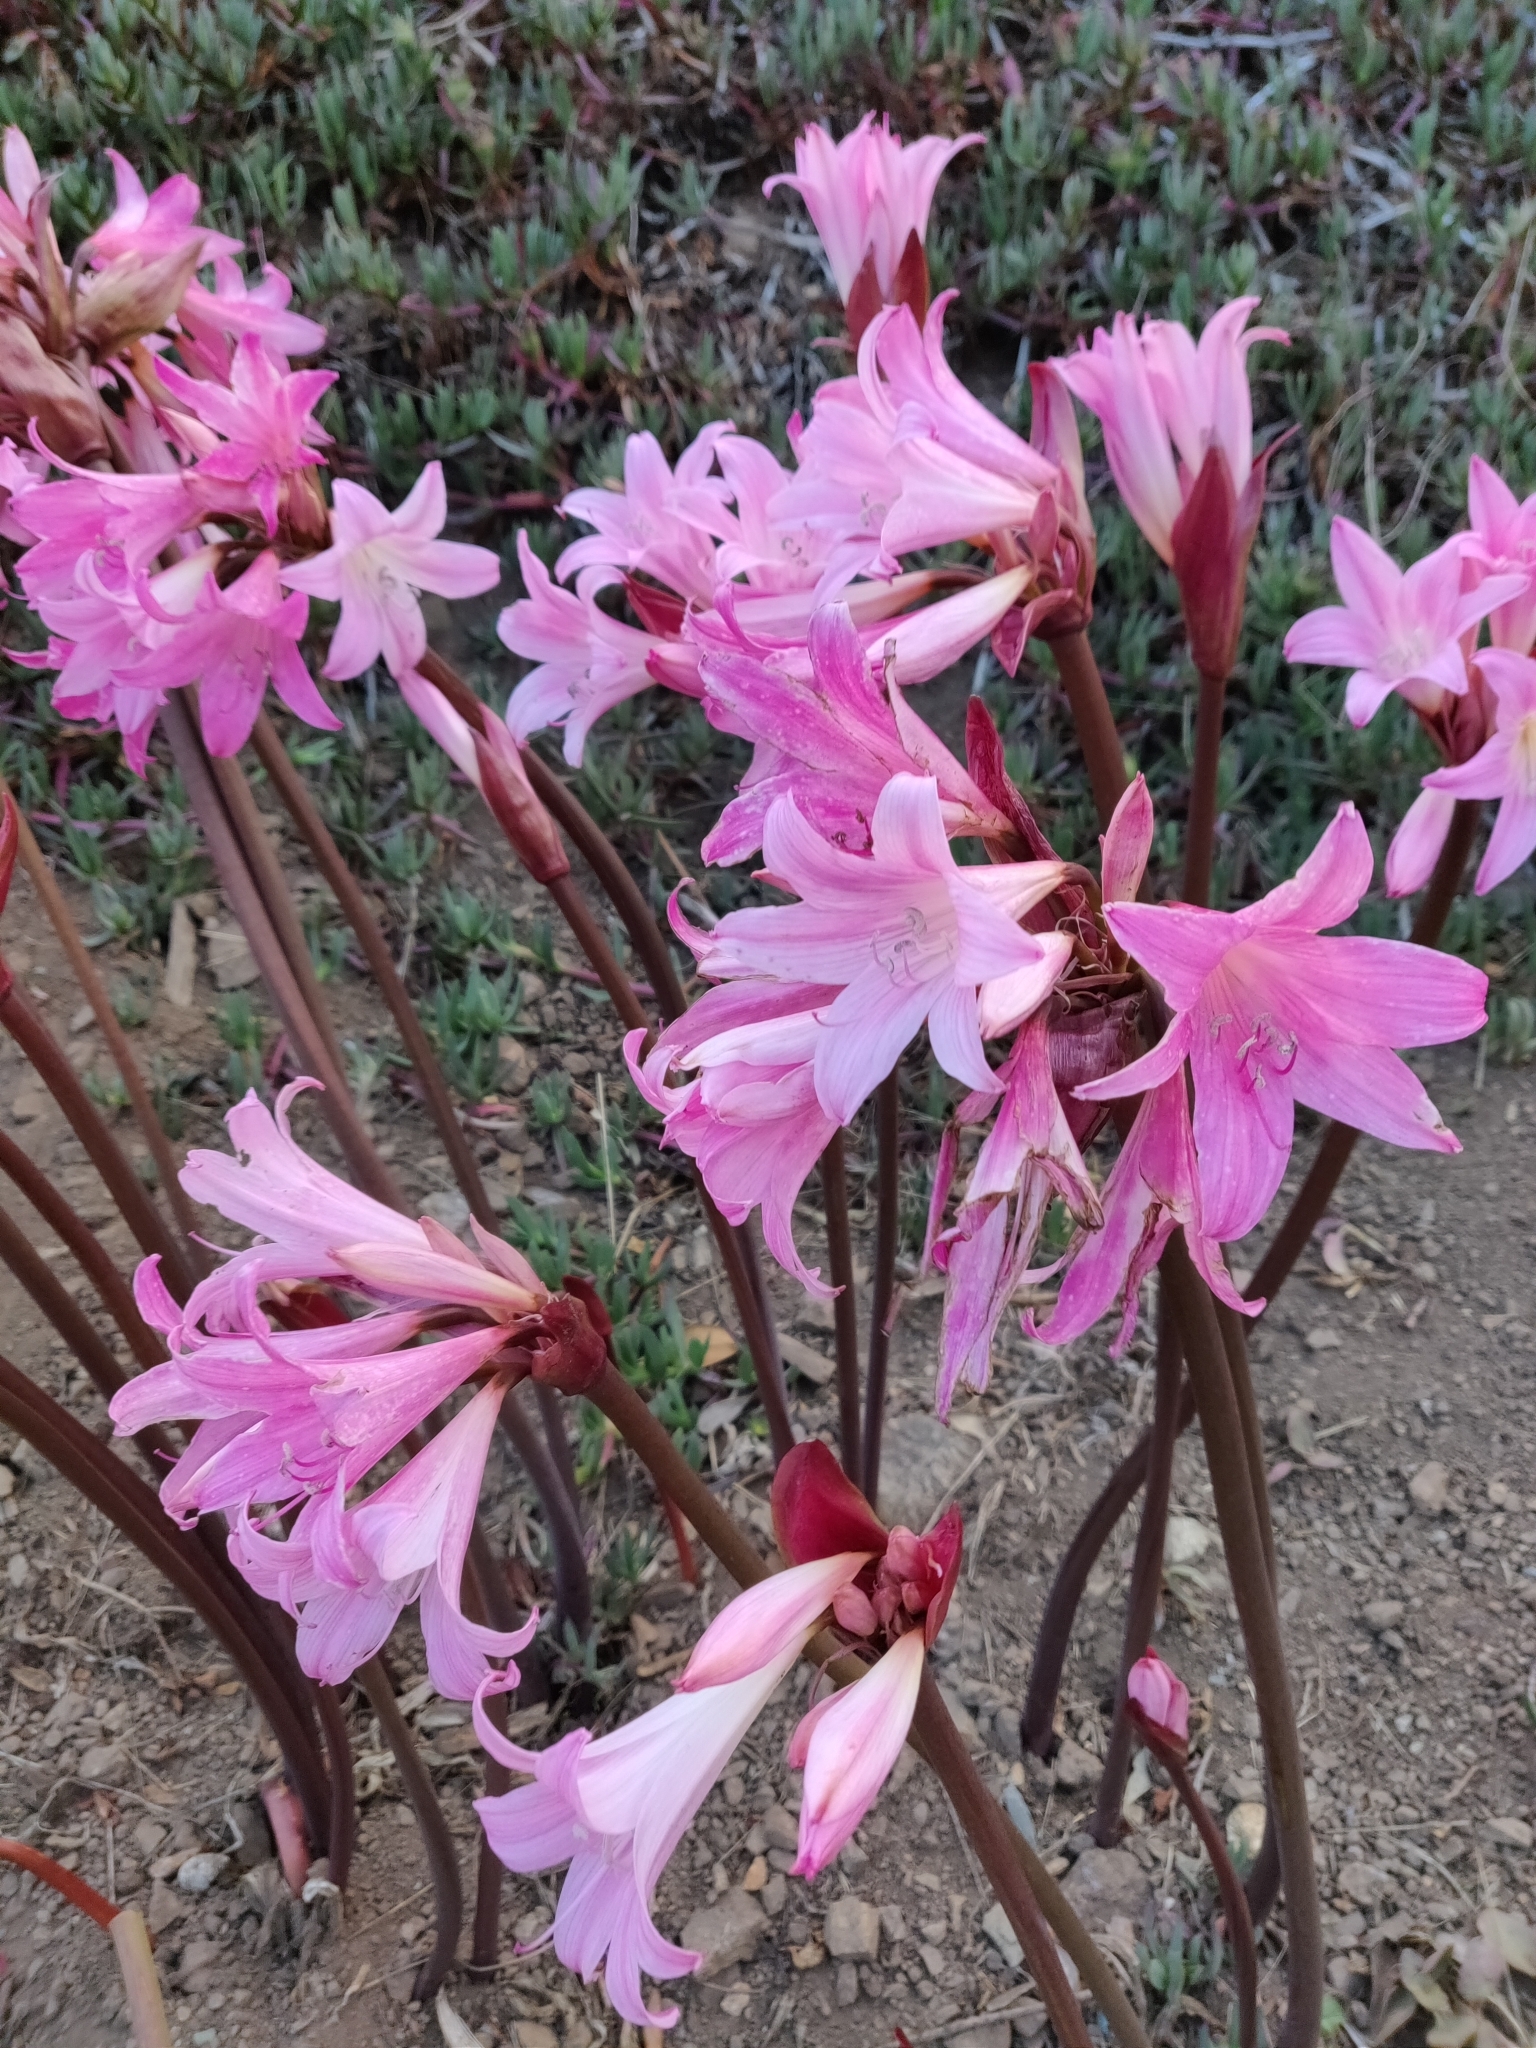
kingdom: Plantae
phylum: Tracheophyta
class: Liliopsida
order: Asparagales
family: Amaryllidaceae
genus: Amaryllis
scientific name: Amaryllis belladonna
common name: Jersey lily
